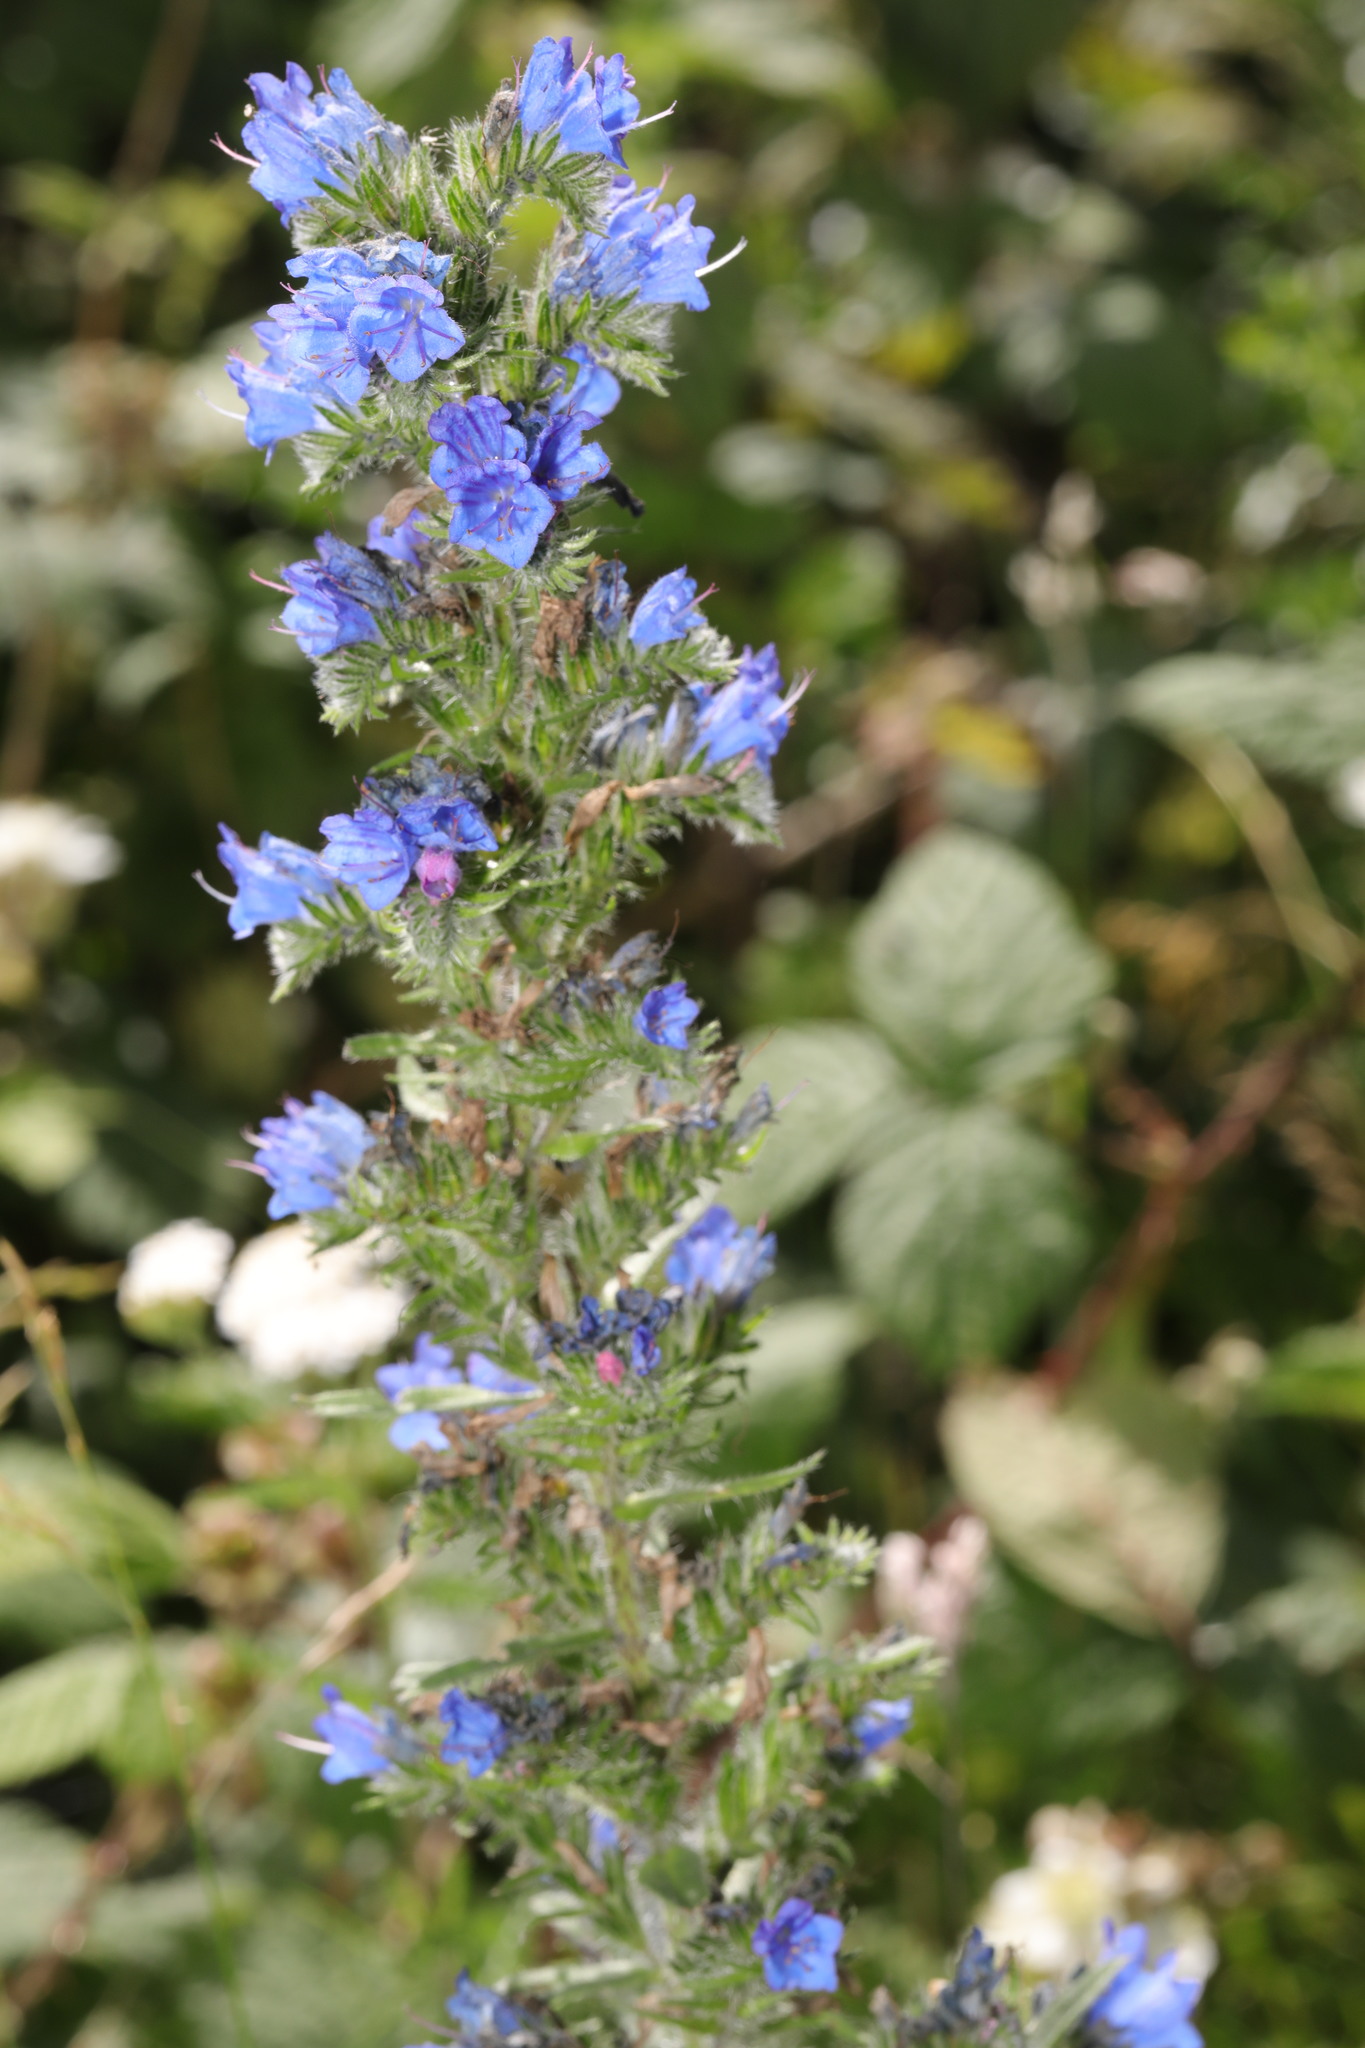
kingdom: Plantae
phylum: Tracheophyta
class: Magnoliopsida
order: Boraginales
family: Boraginaceae
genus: Echium
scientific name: Echium vulgare
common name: Common viper's bugloss
